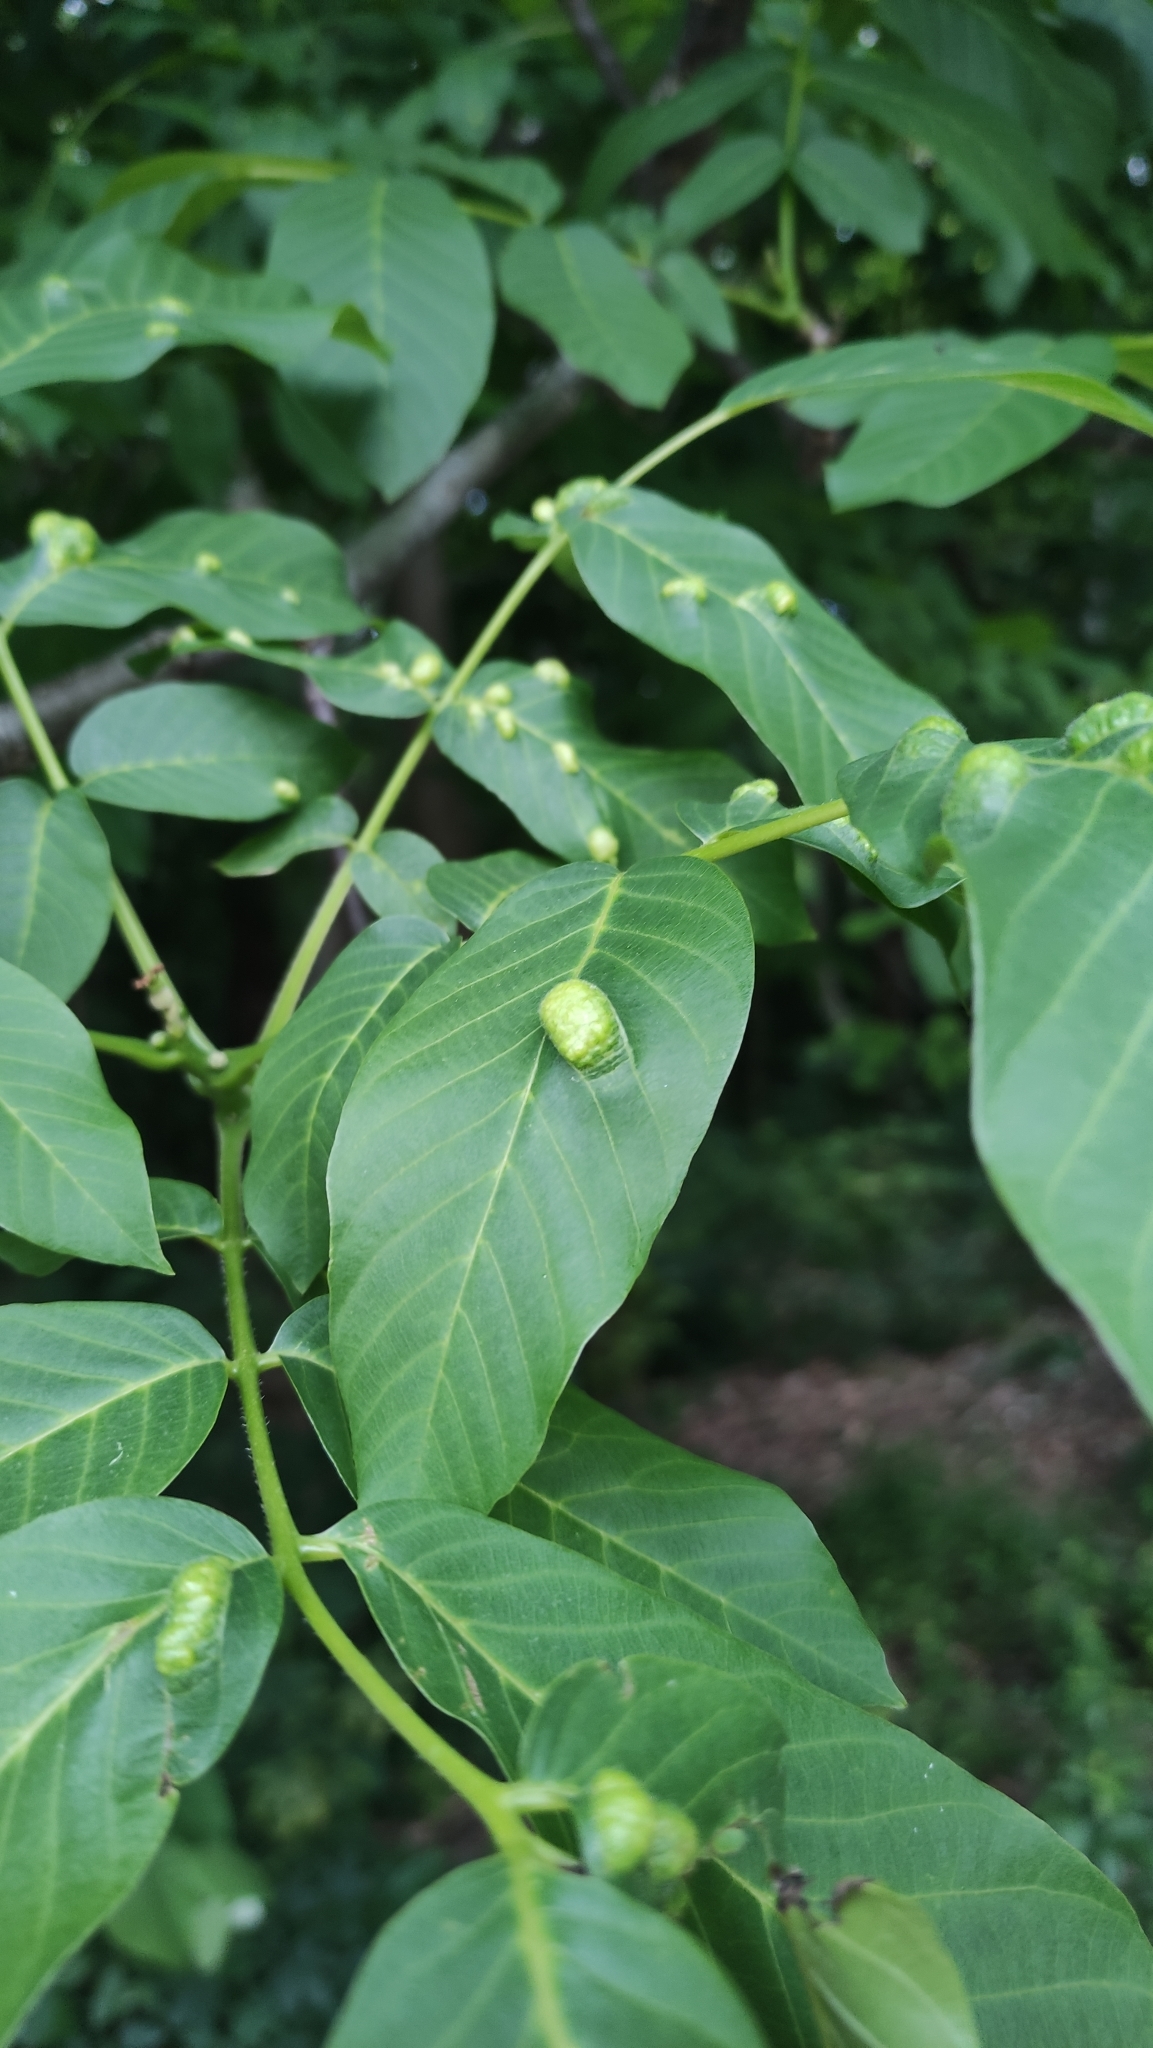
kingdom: Animalia
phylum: Arthropoda
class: Arachnida
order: Trombidiformes
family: Eriophyidae
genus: Aceria
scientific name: Aceria erinea
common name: Persian walnut erineum mite
